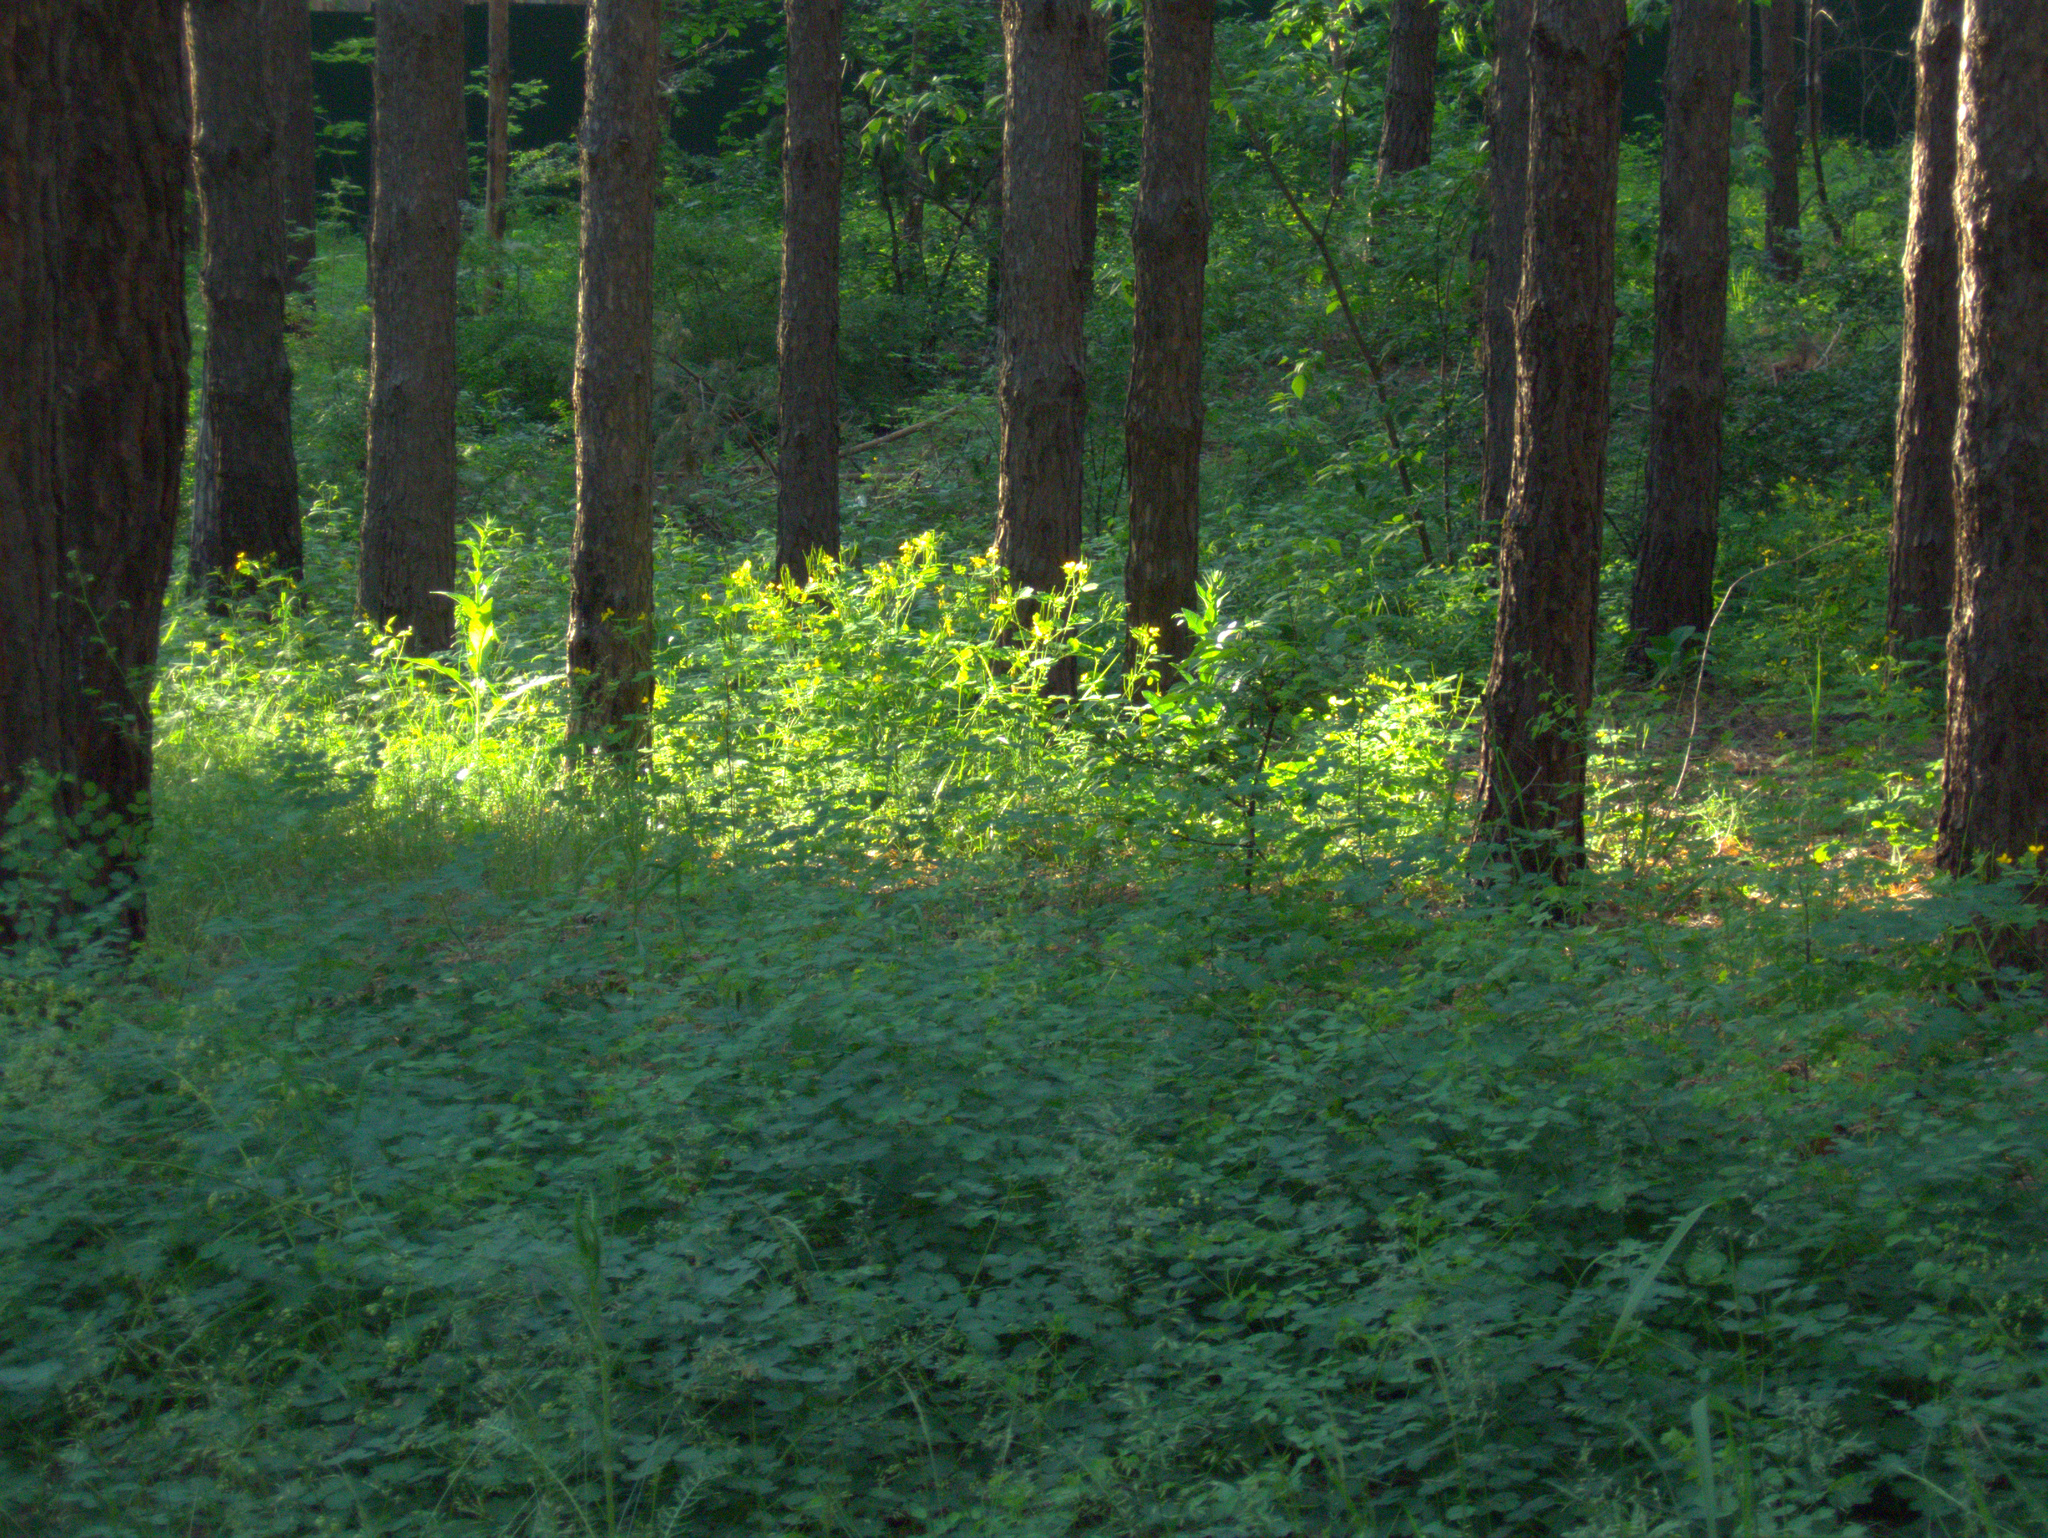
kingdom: Plantae
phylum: Tracheophyta
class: Magnoliopsida
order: Ranunculales
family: Papaveraceae
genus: Chelidonium
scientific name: Chelidonium majus
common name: Greater celandine
